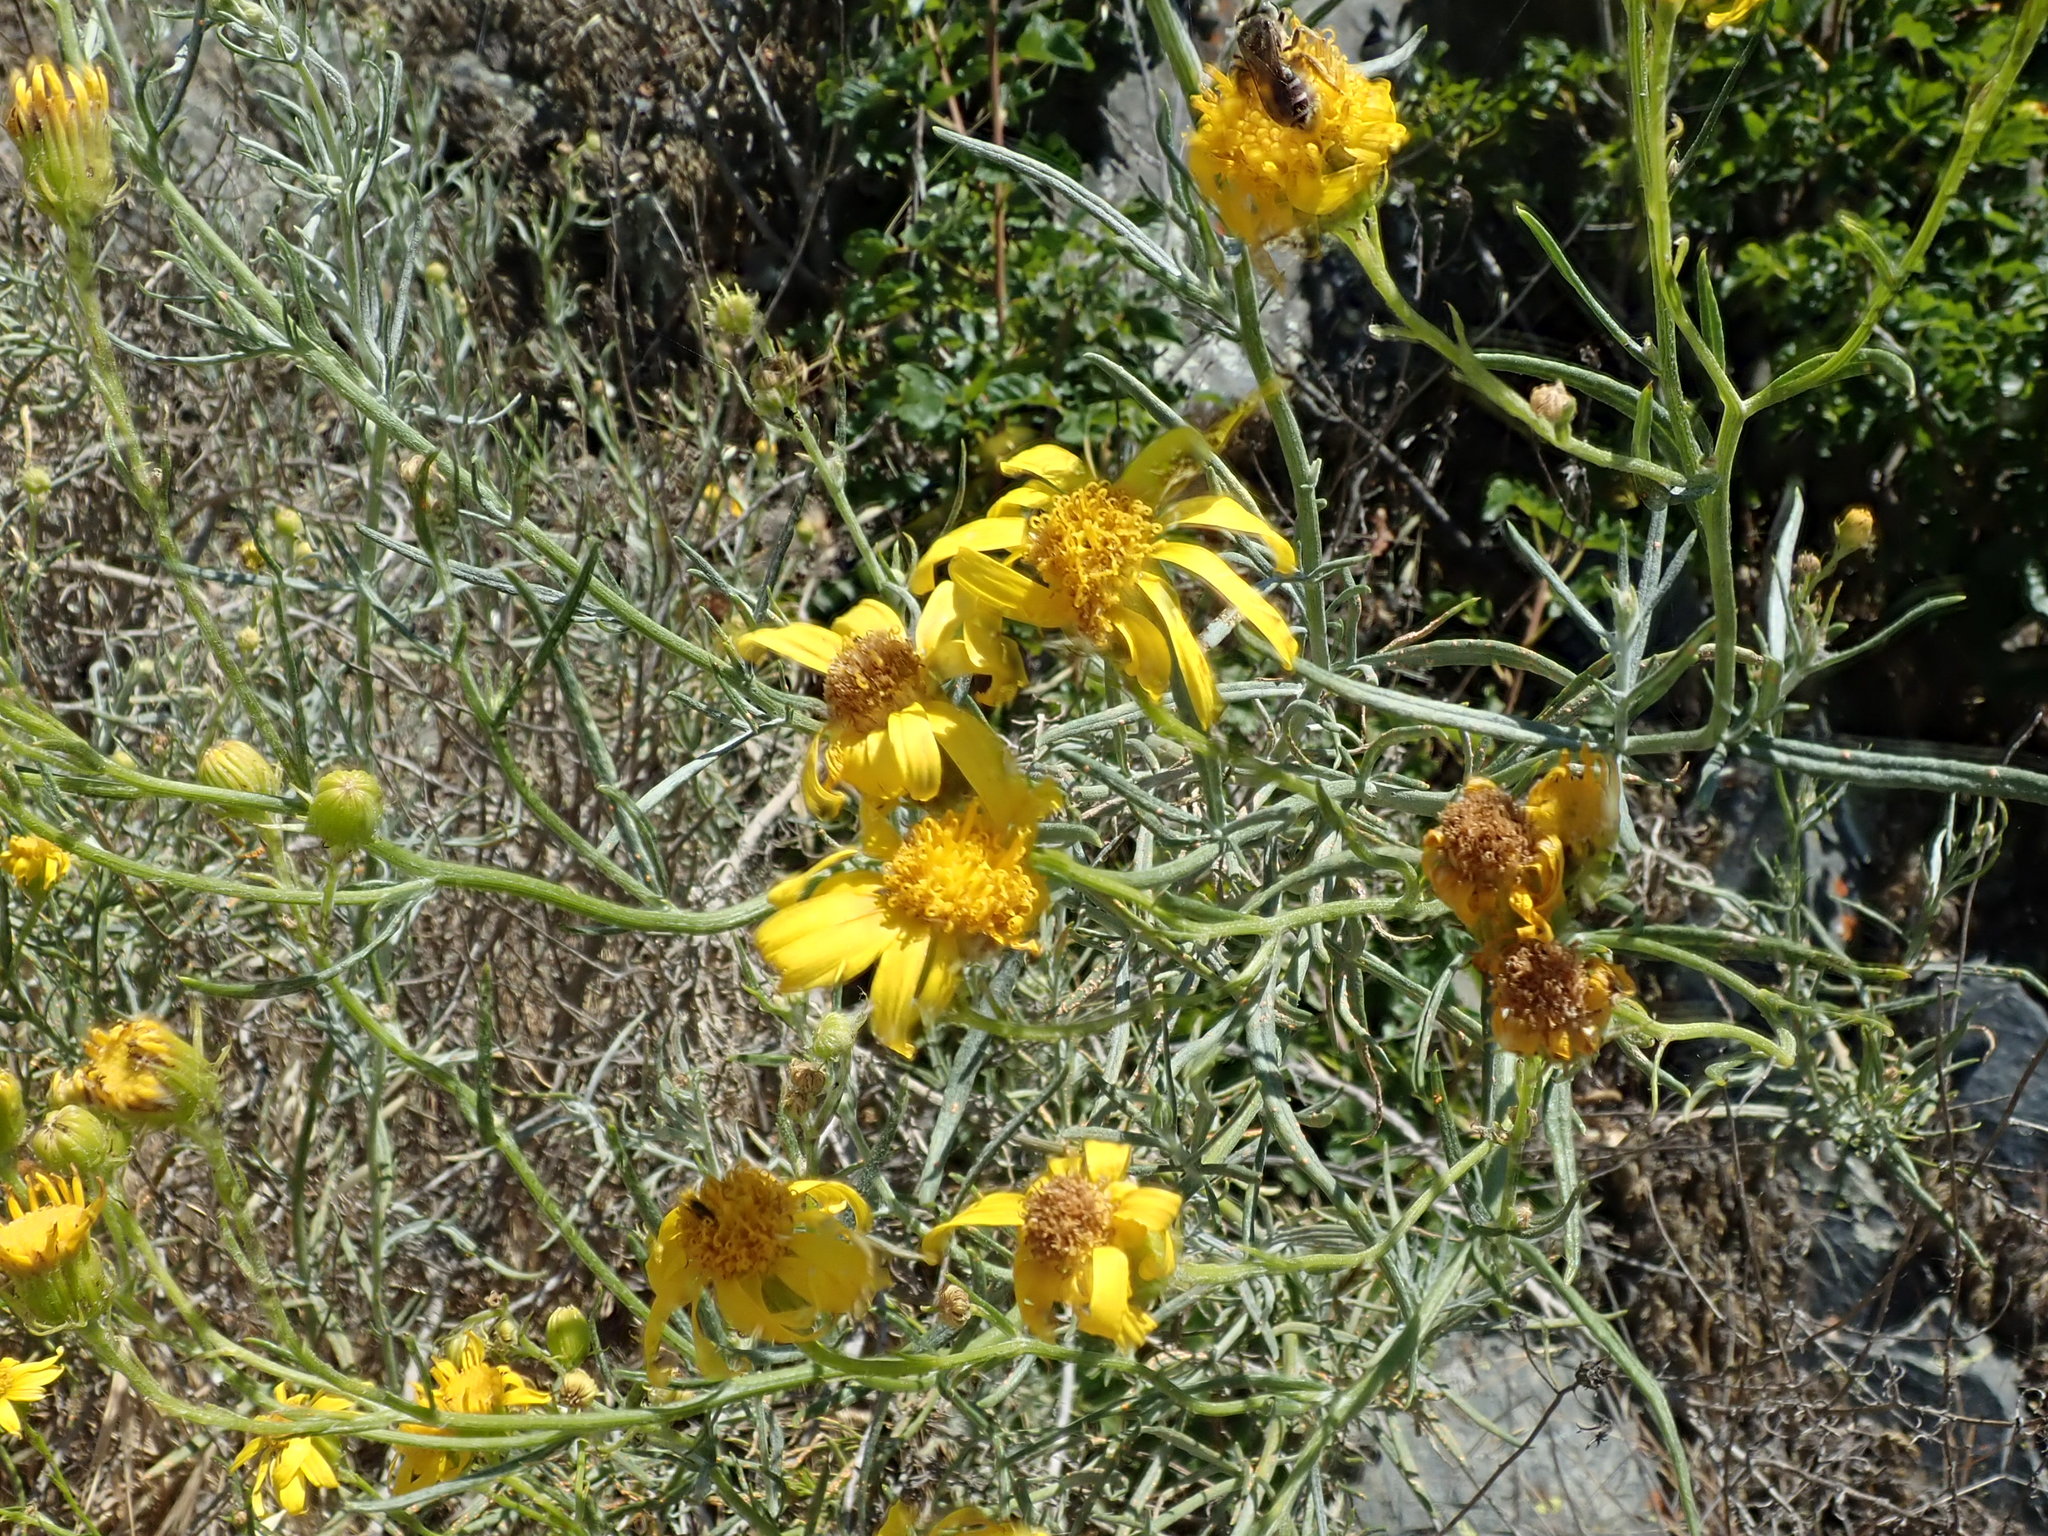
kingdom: Plantae
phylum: Tracheophyta
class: Magnoliopsida
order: Asterales
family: Asteraceae
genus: Senecio
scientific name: Senecio flaccidus
